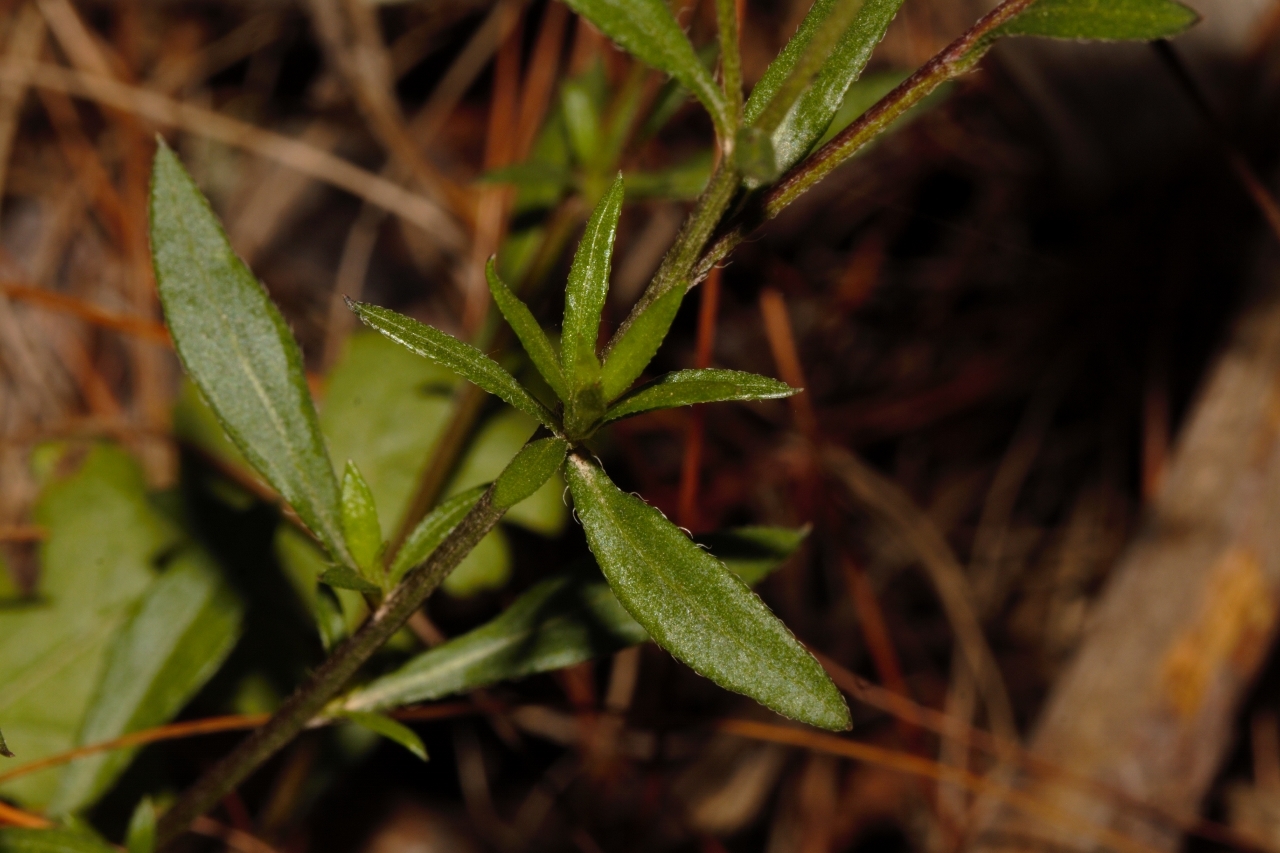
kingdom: Plantae
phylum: Tracheophyta
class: Magnoliopsida
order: Asterales
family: Asteraceae
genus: Erigeron
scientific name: Erigeron karvinskianus
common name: Mexican fleabane
